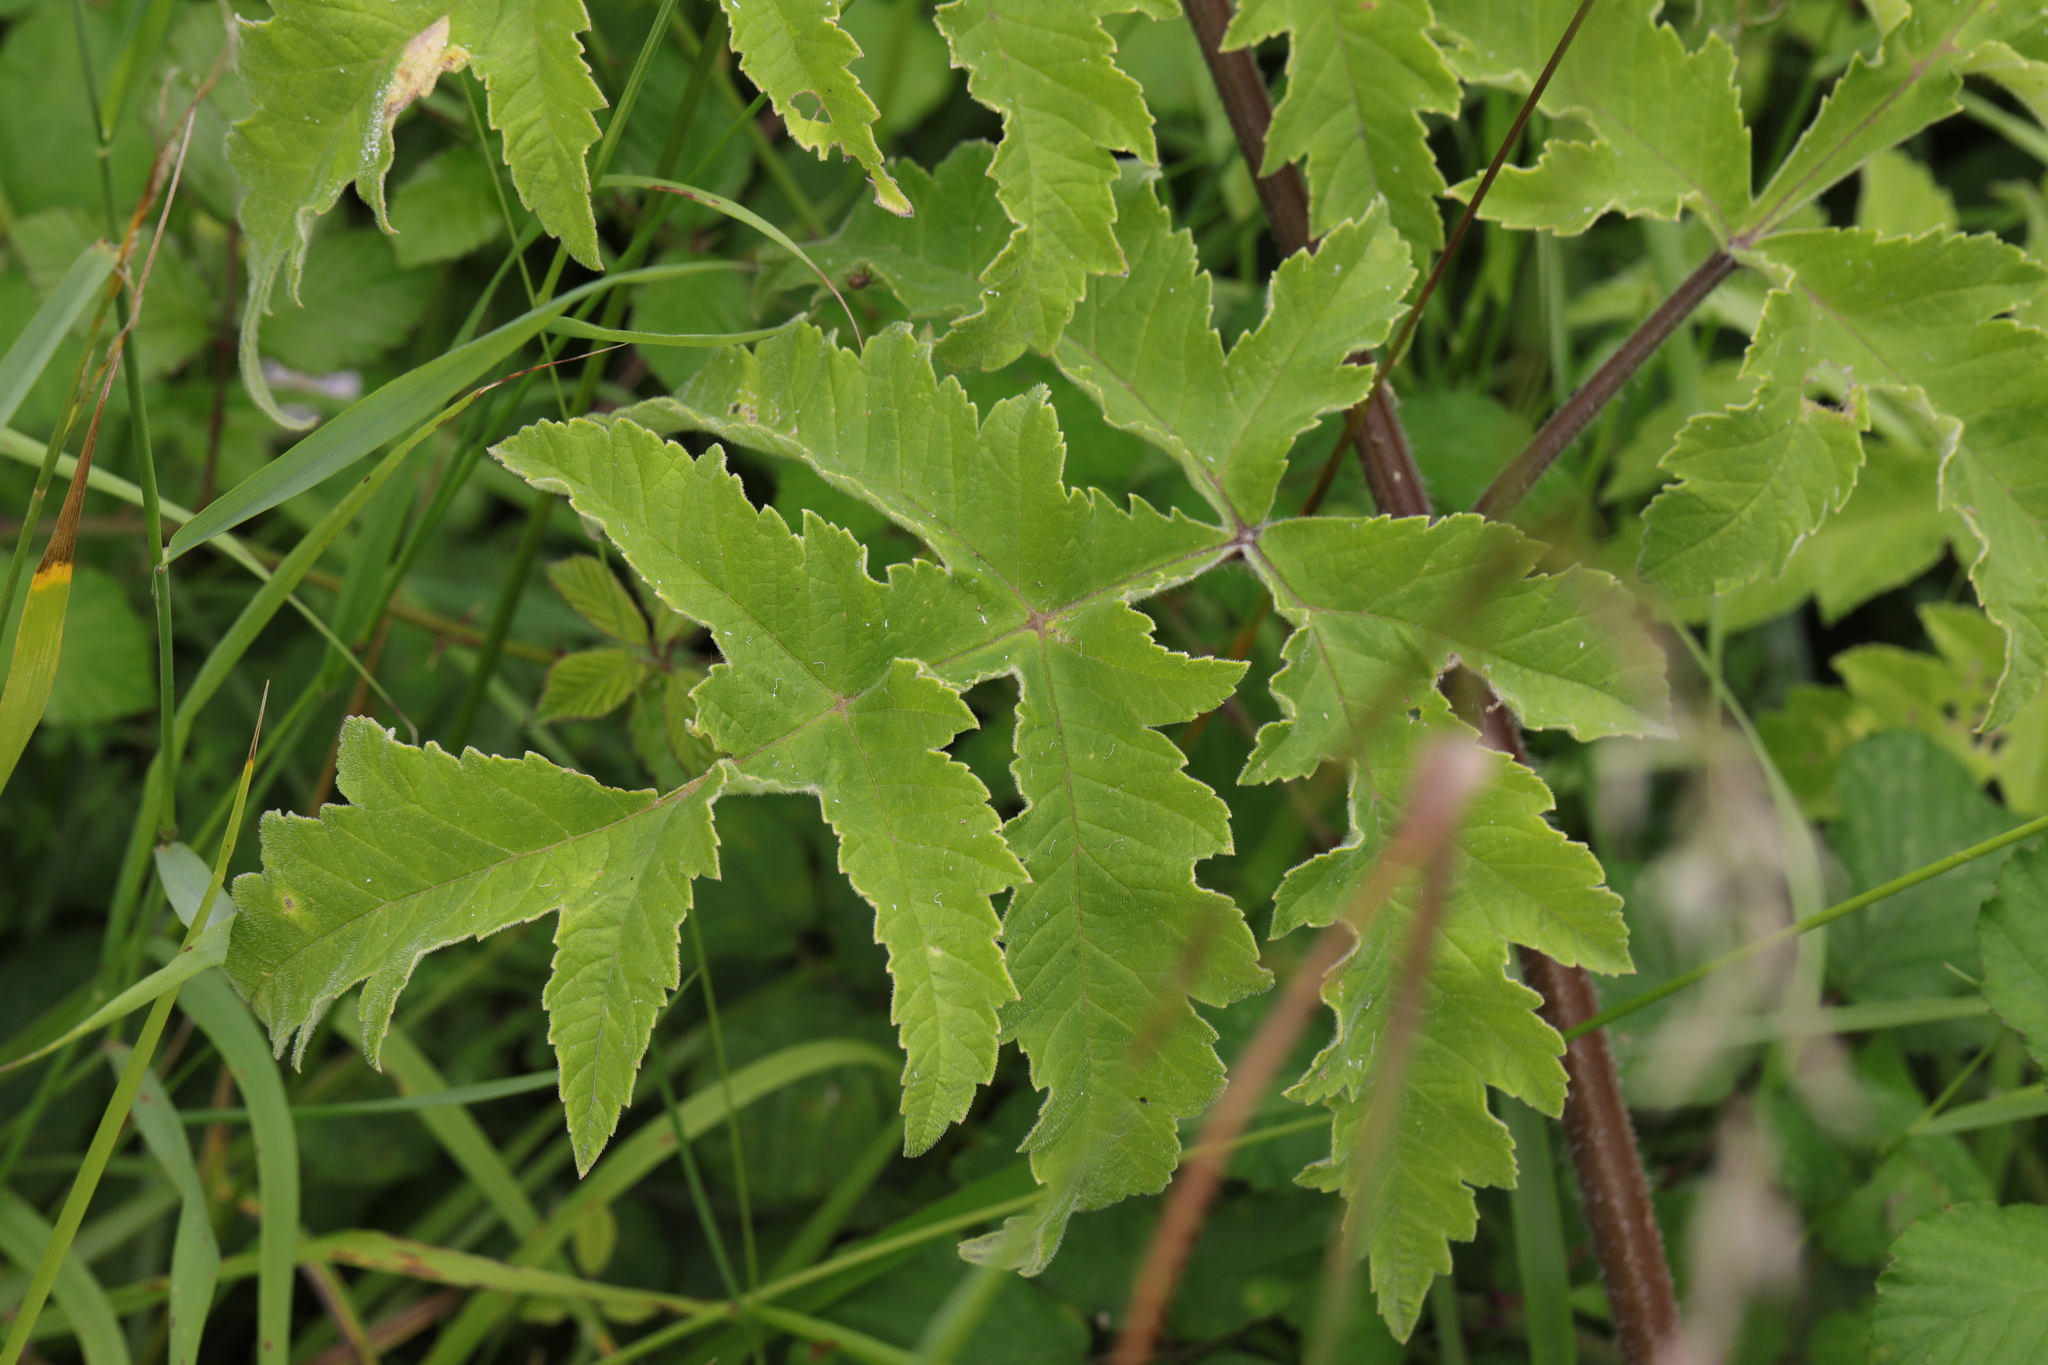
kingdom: Plantae
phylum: Tracheophyta
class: Magnoliopsida
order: Apiales
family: Apiaceae
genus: Heracleum
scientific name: Heracleum sphondylium
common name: Hogweed
